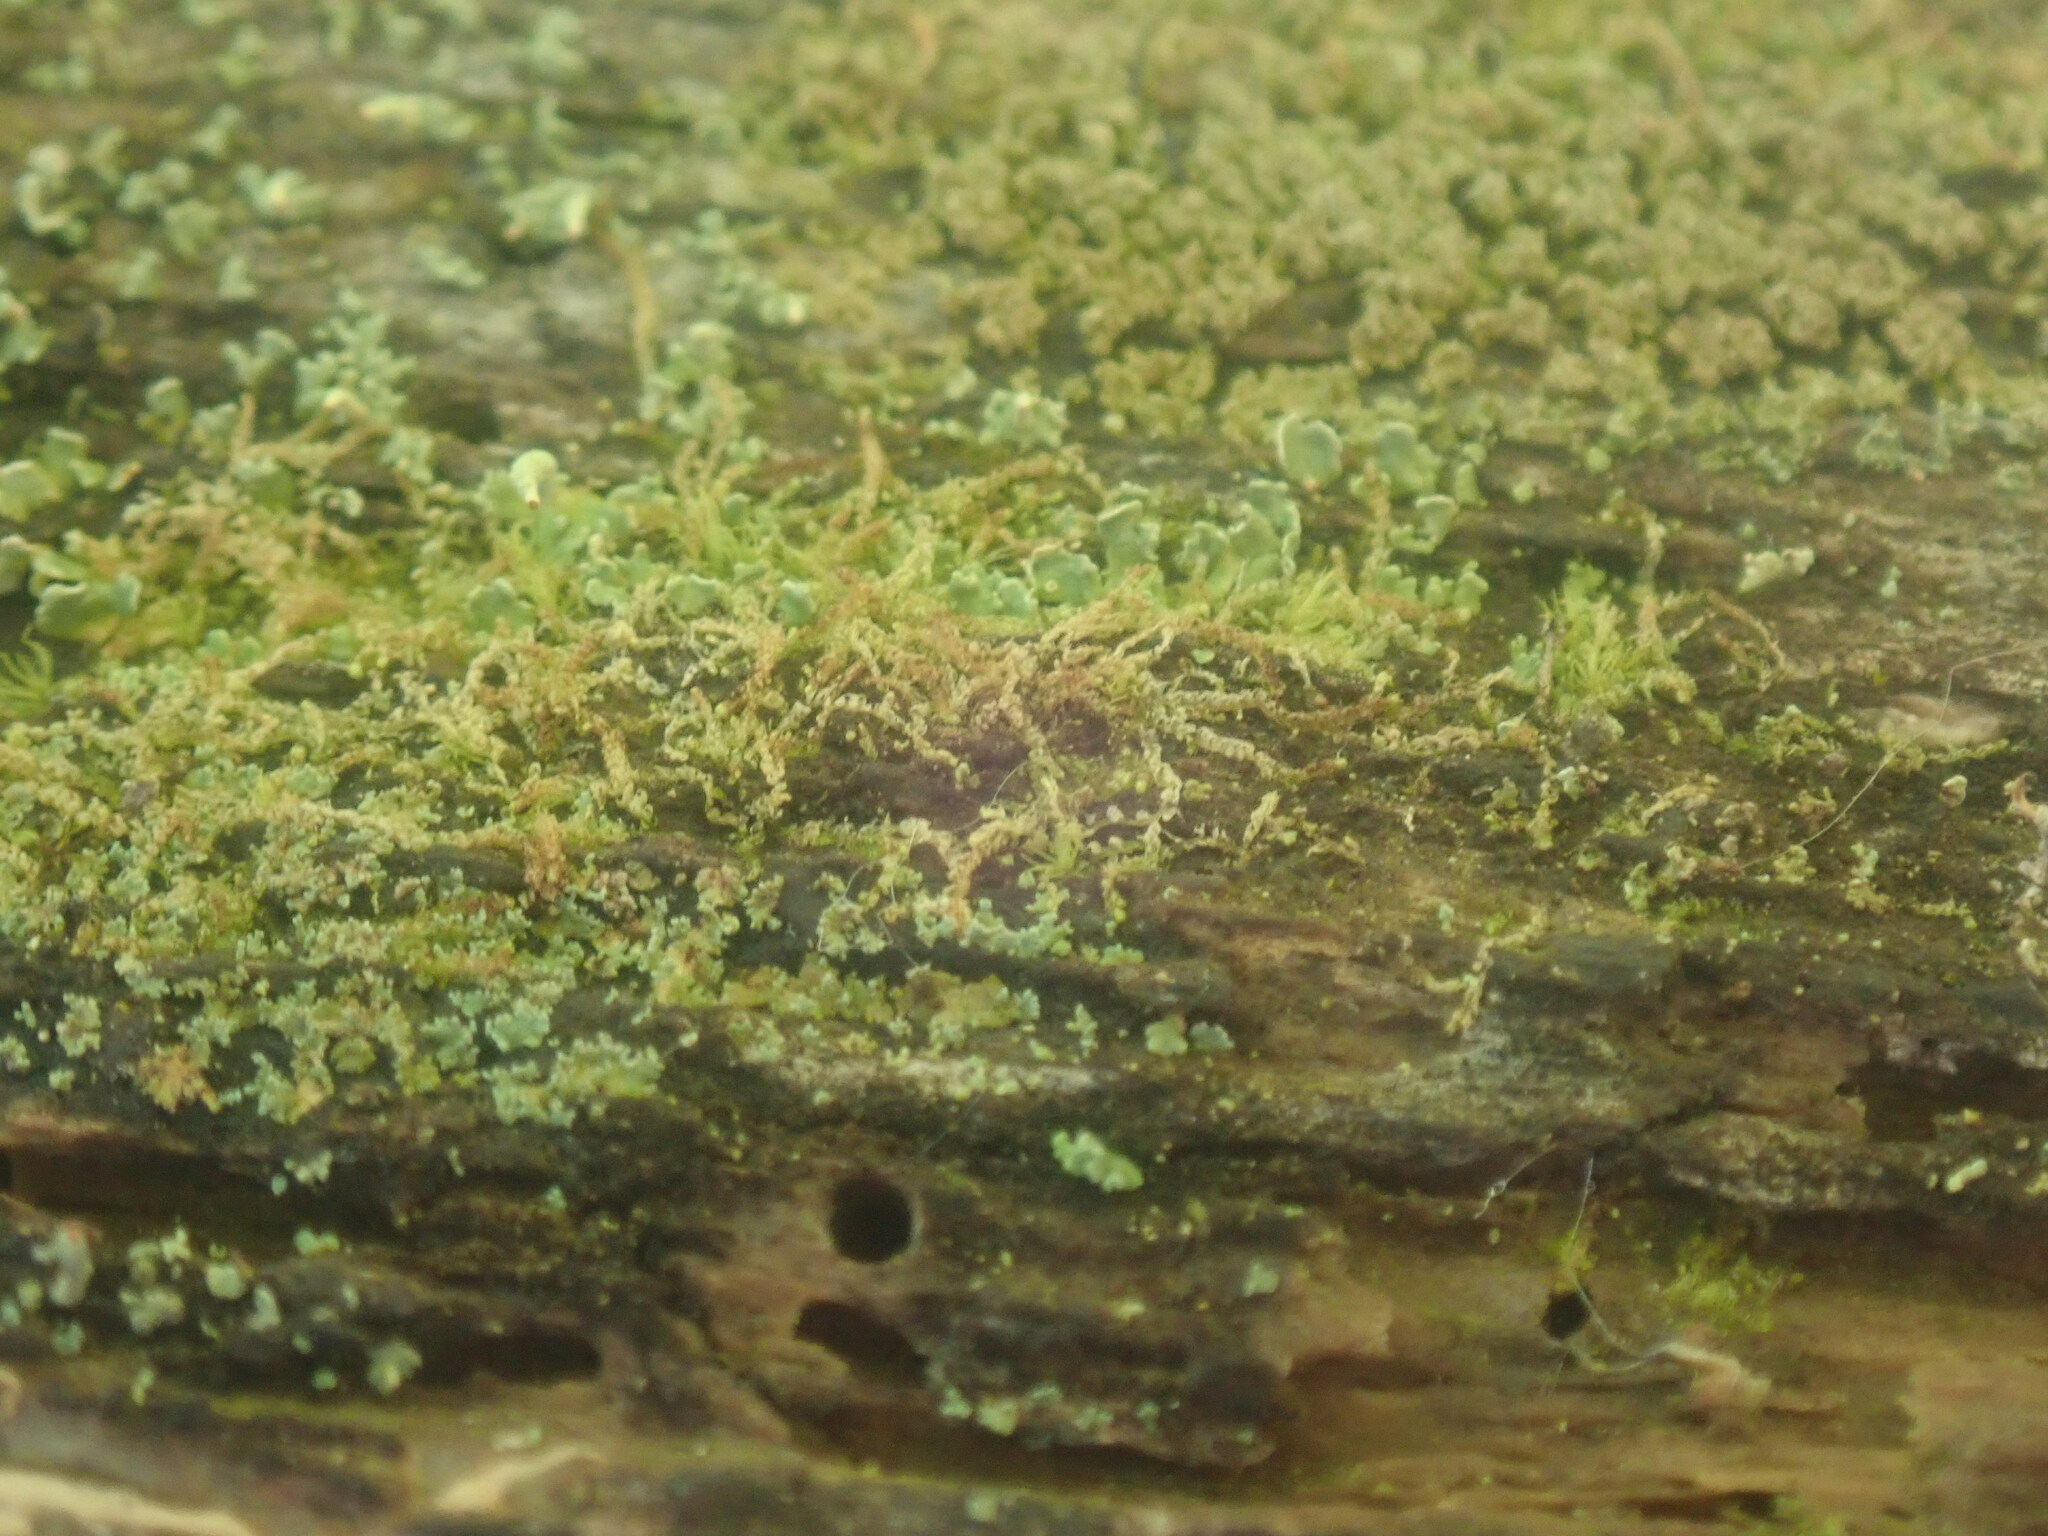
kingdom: Plantae
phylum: Marchantiophyta
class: Jungermanniopsida
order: Jungermanniales
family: Cephaloziaceae
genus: Nowellia
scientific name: Nowellia curvifolia
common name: Wood rustwort
